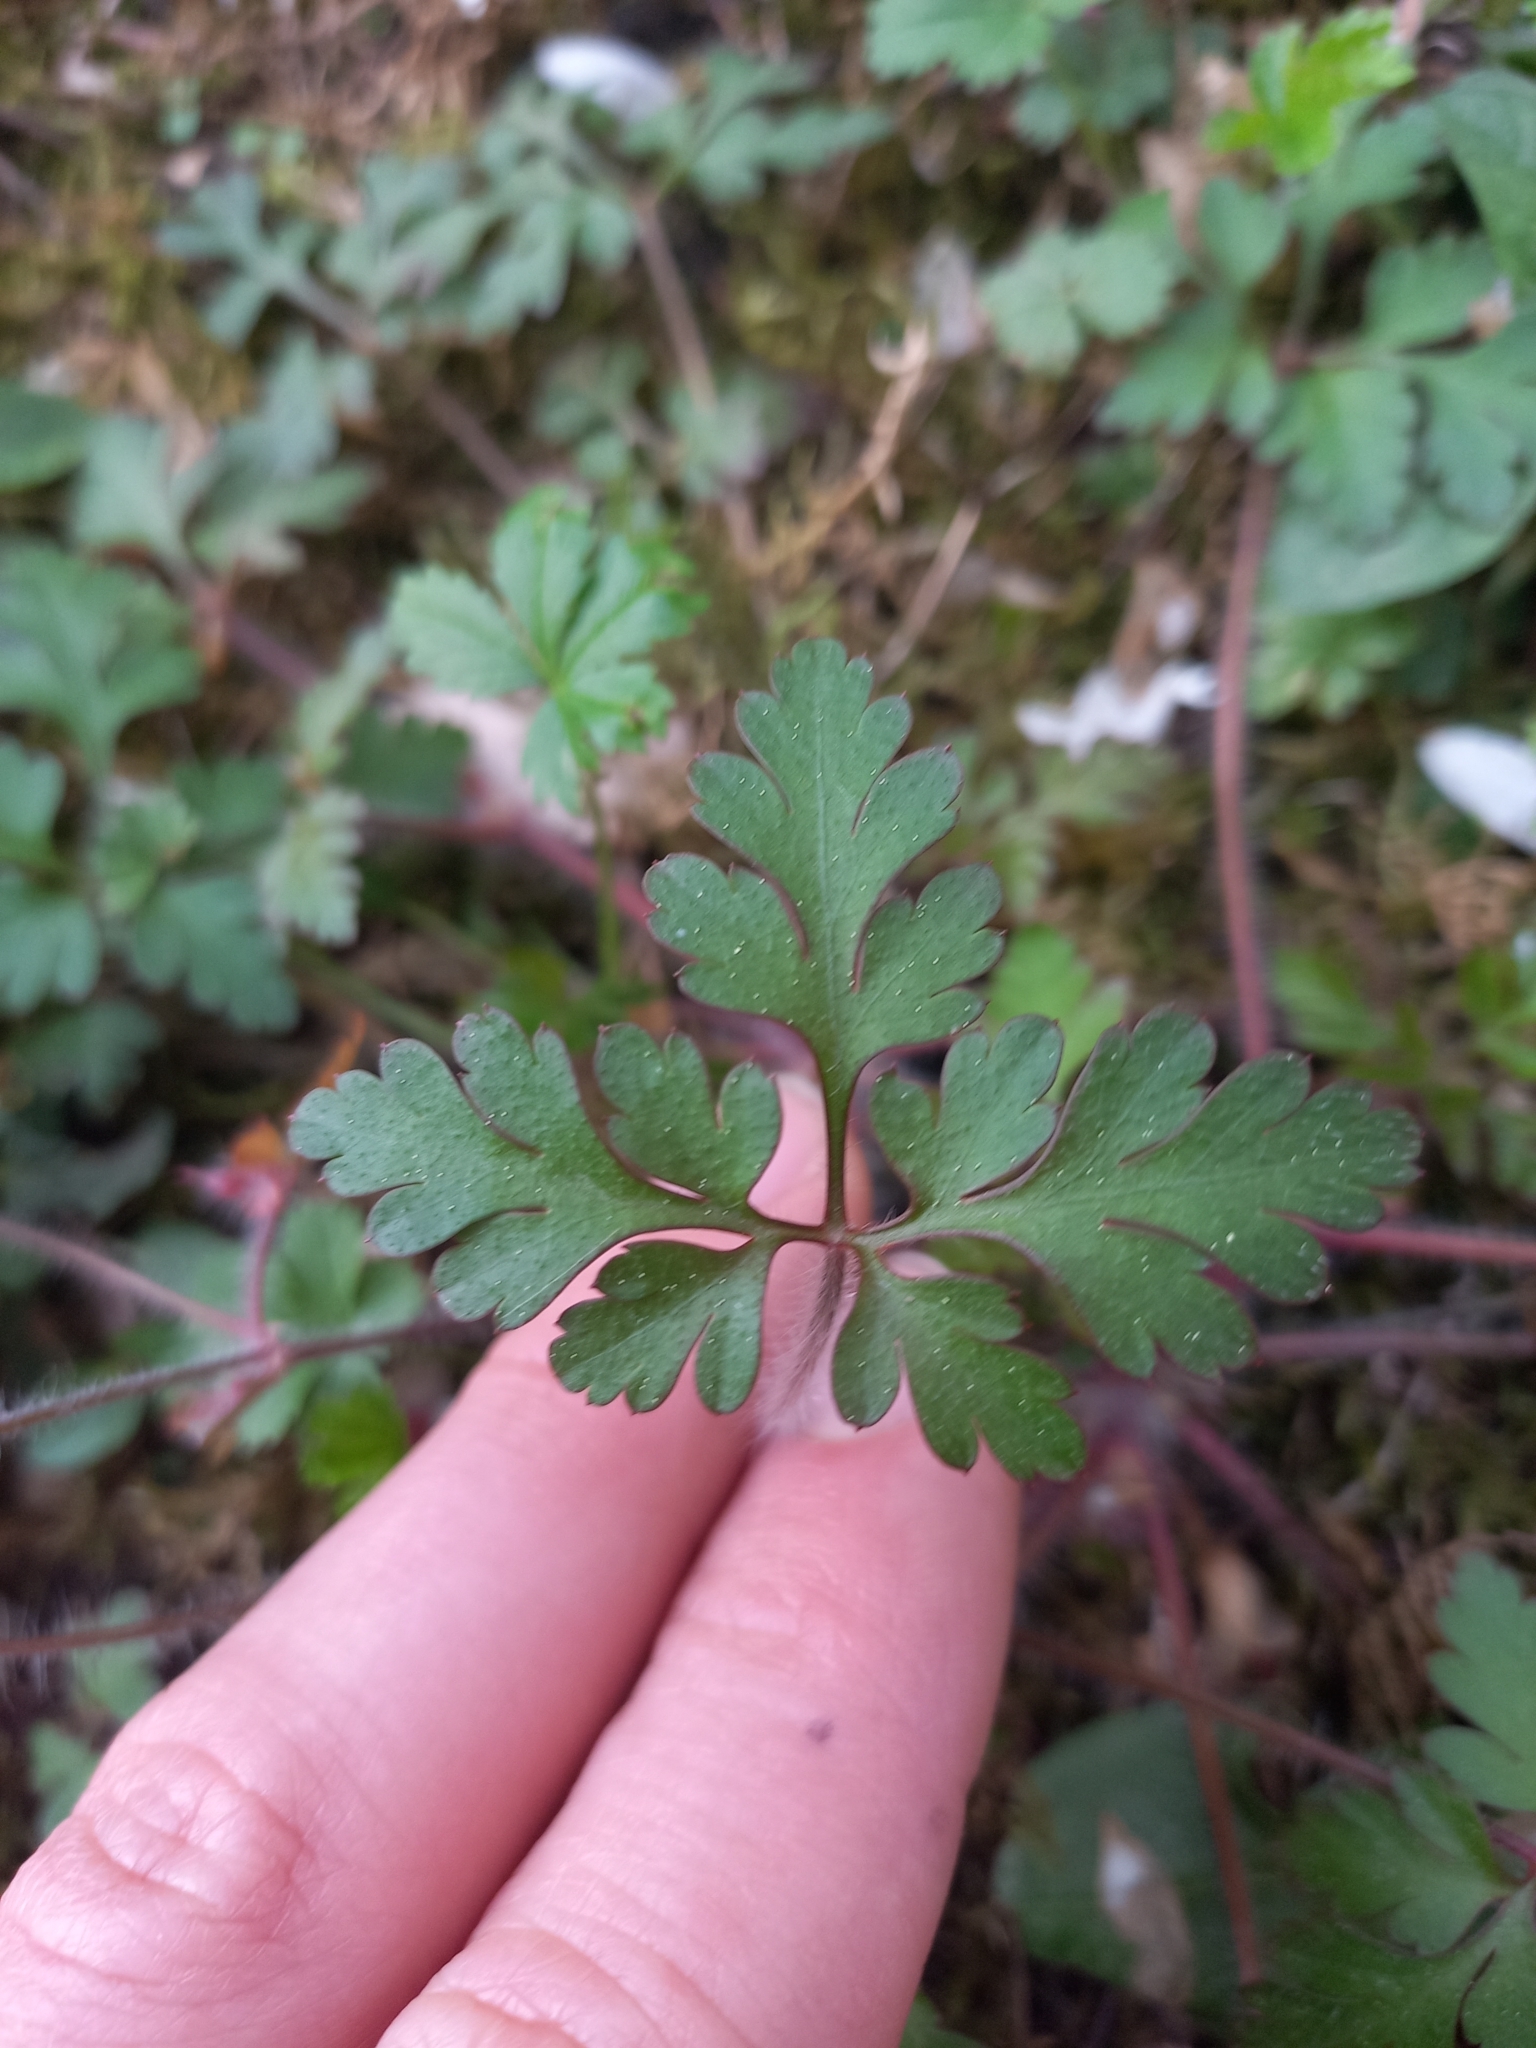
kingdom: Plantae
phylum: Tracheophyta
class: Magnoliopsida
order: Geraniales
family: Geraniaceae
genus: Geranium
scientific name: Geranium robertianum
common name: Herb-robert
